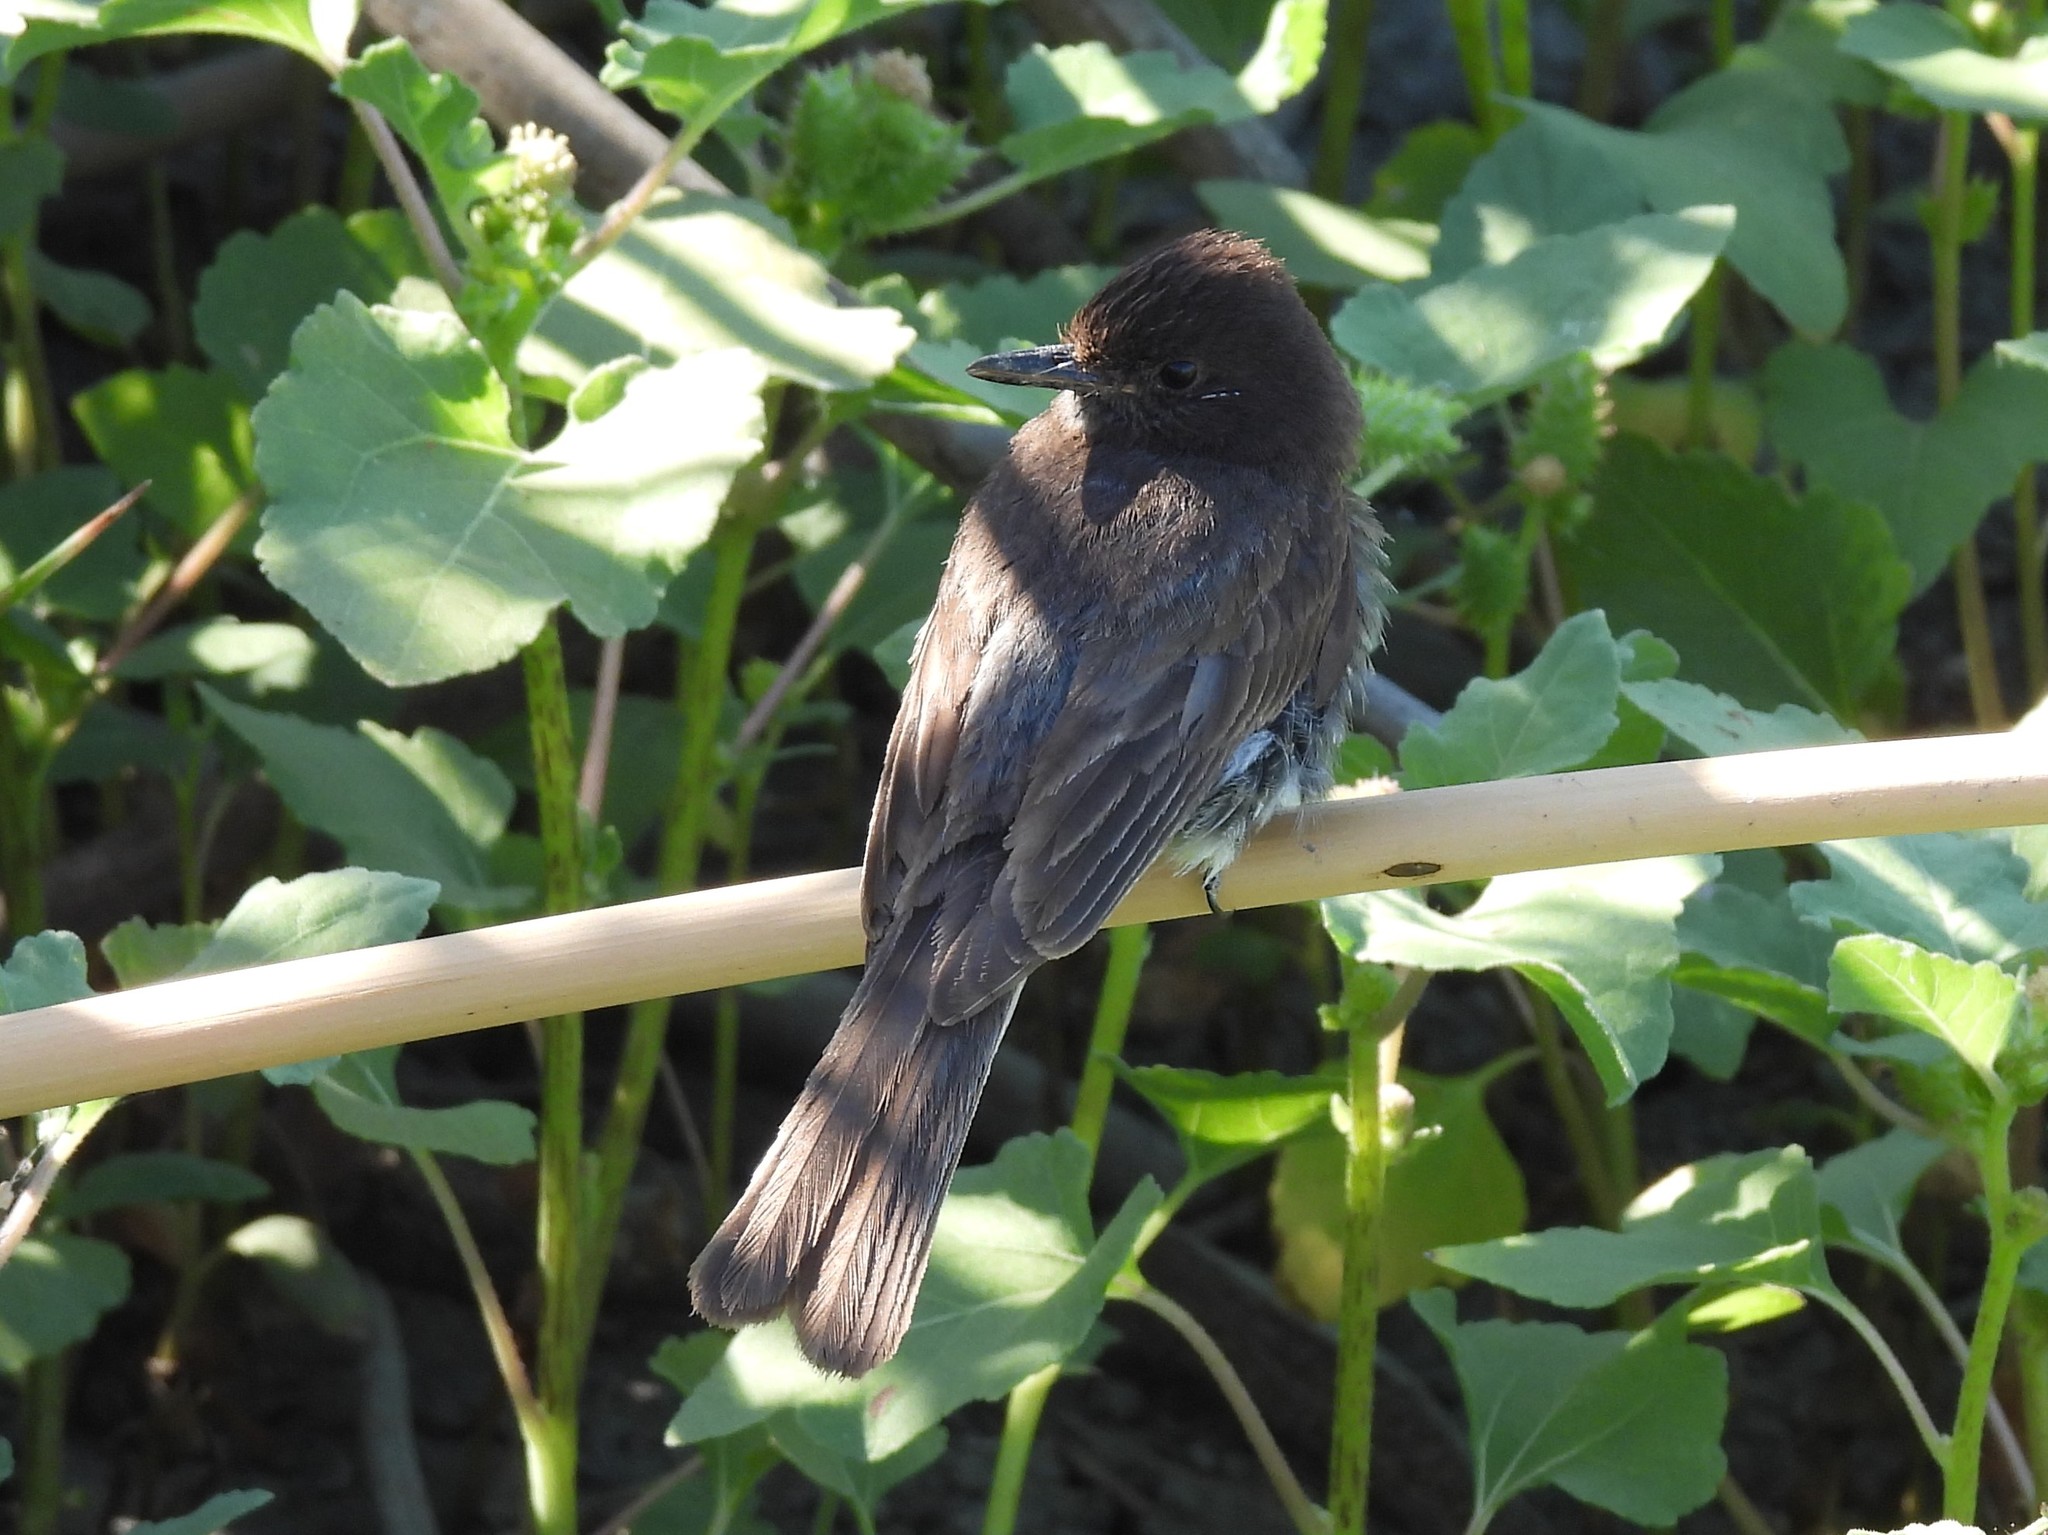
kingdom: Animalia
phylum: Chordata
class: Aves
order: Passeriformes
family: Tyrannidae
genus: Sayornis
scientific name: Sayornis nigricans
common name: Black phoebe
